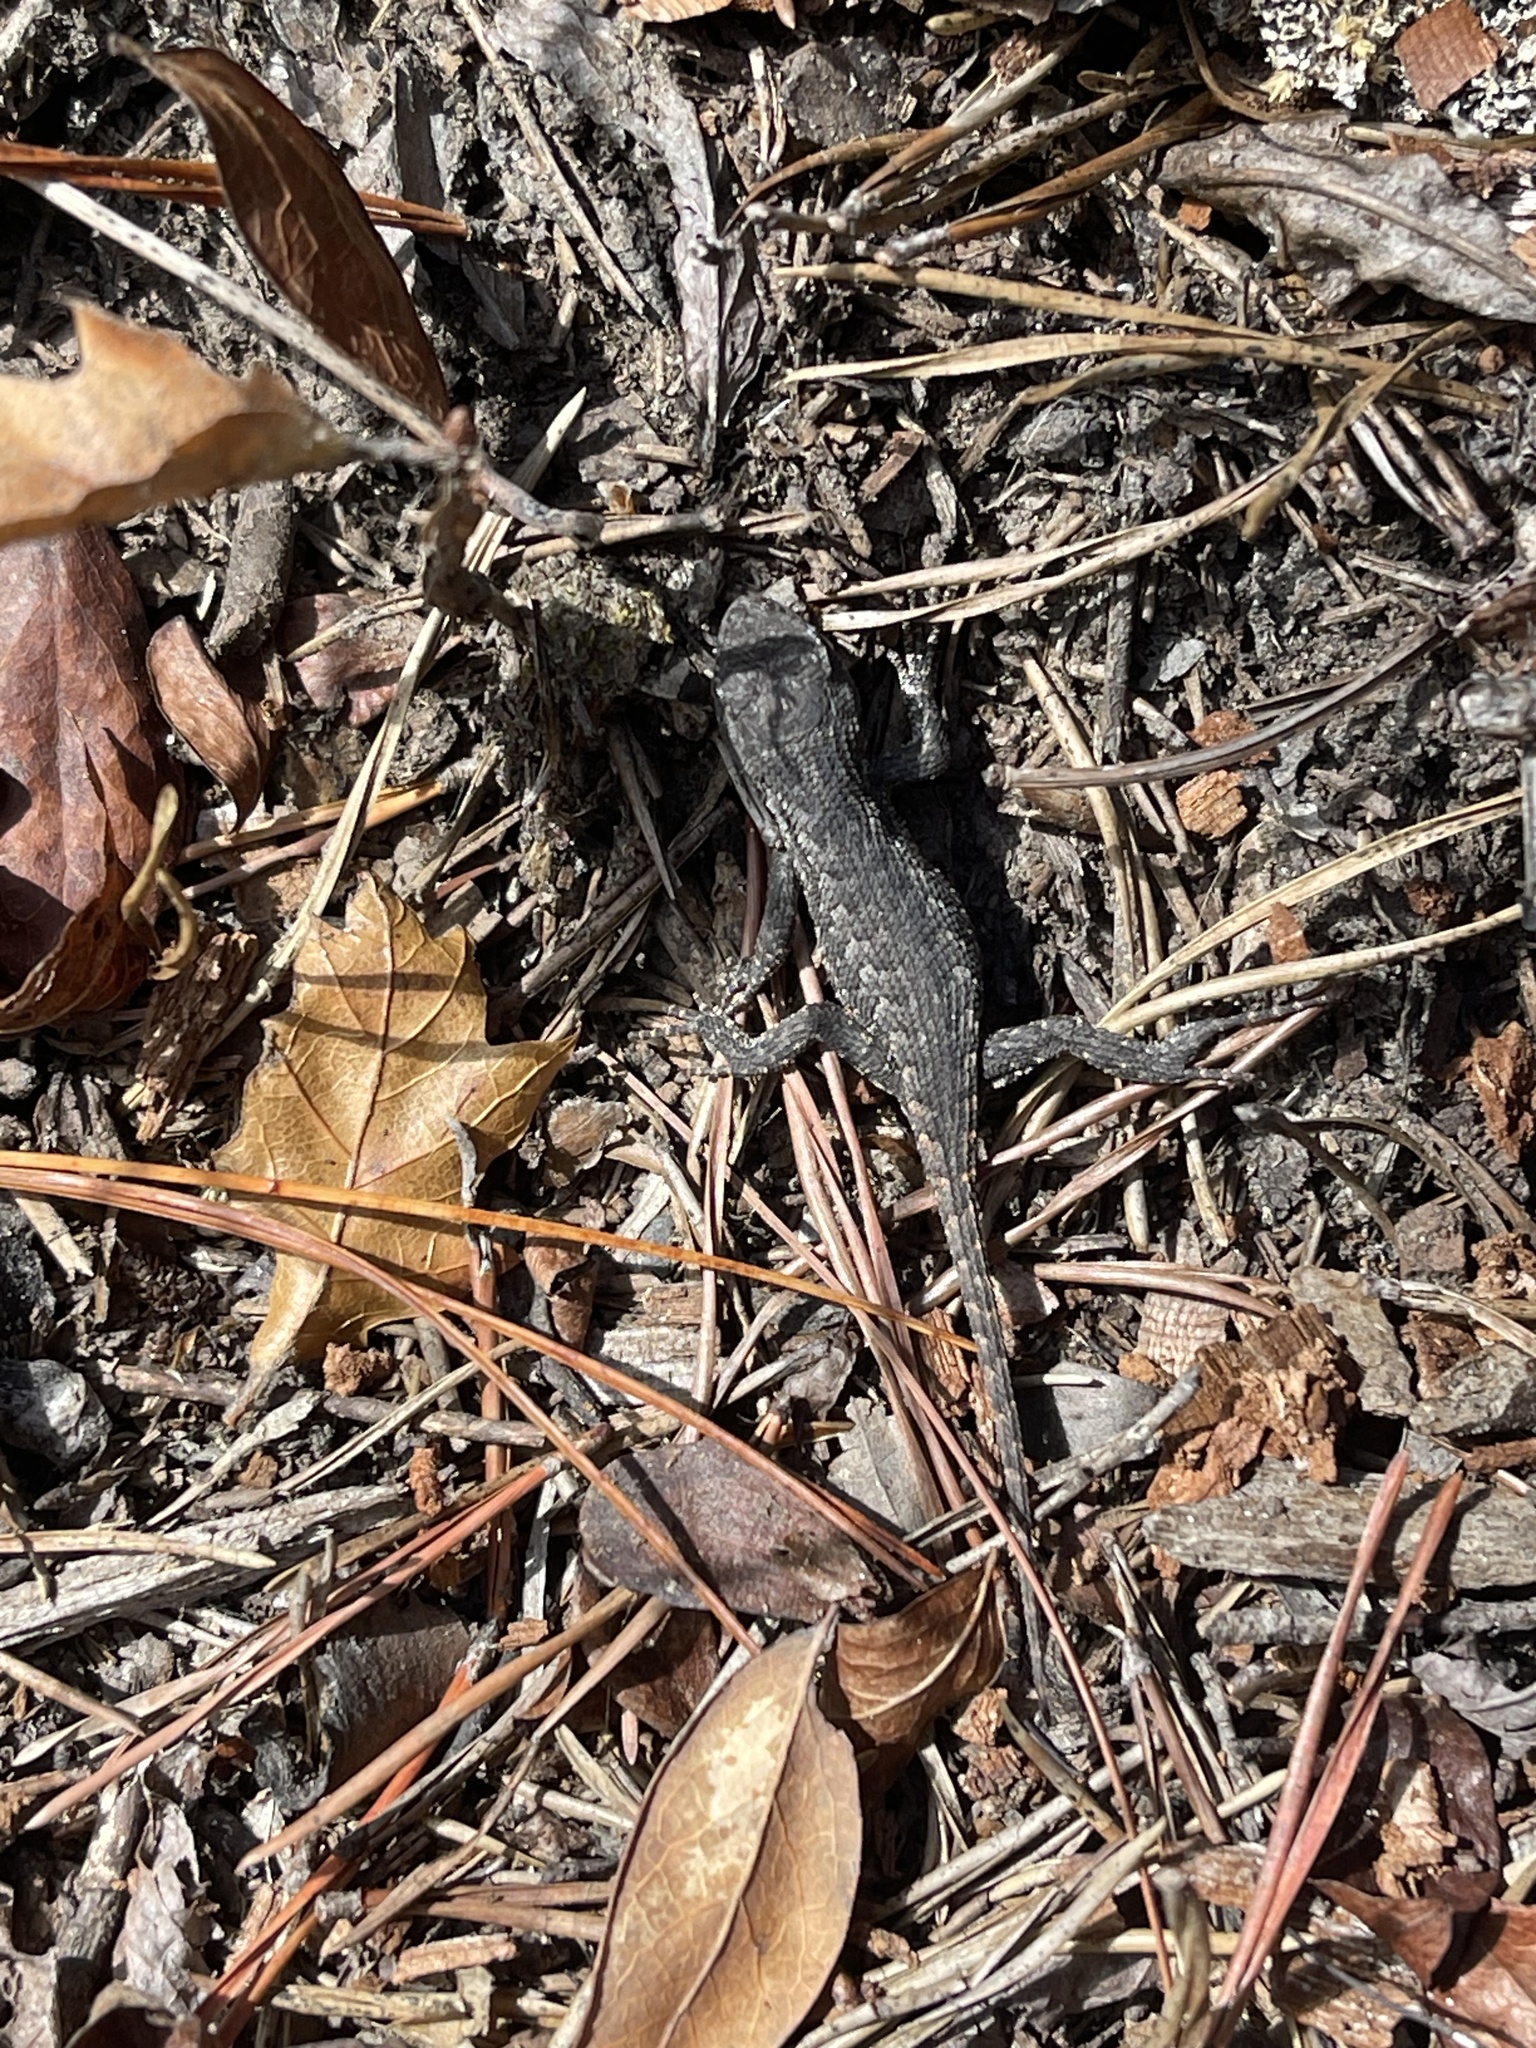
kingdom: Animalia
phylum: Chordata
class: Squamata
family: Phrynosomatidae
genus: Sceloporus
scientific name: Sceloporus undulatus
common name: Eastern fence lizard
